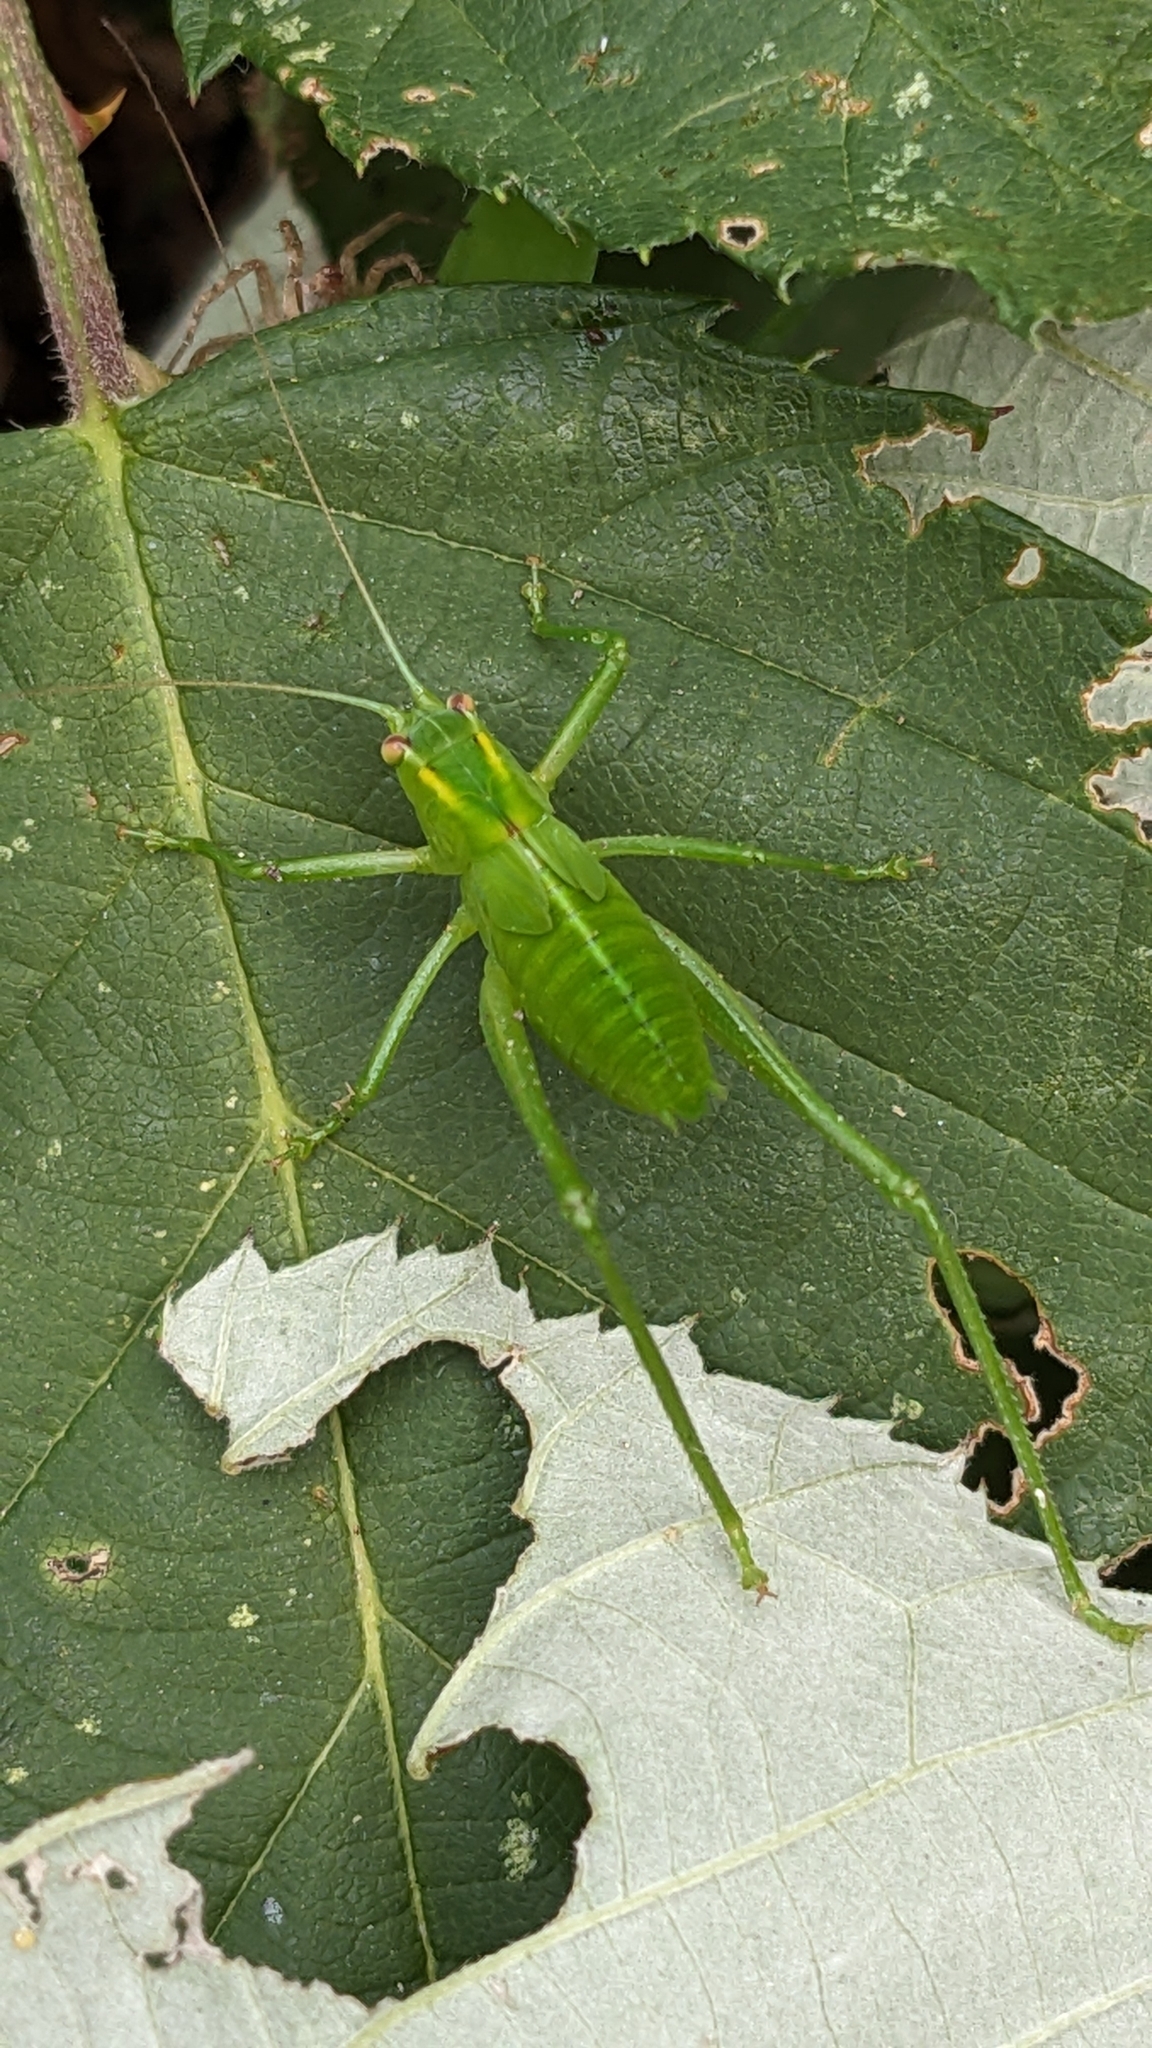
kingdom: Animalia
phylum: Arthropoda
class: Insecta
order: Orthoptera
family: Tettigoniidae
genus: Caedicia
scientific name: Caedicia simplex
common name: Common garden katydid
